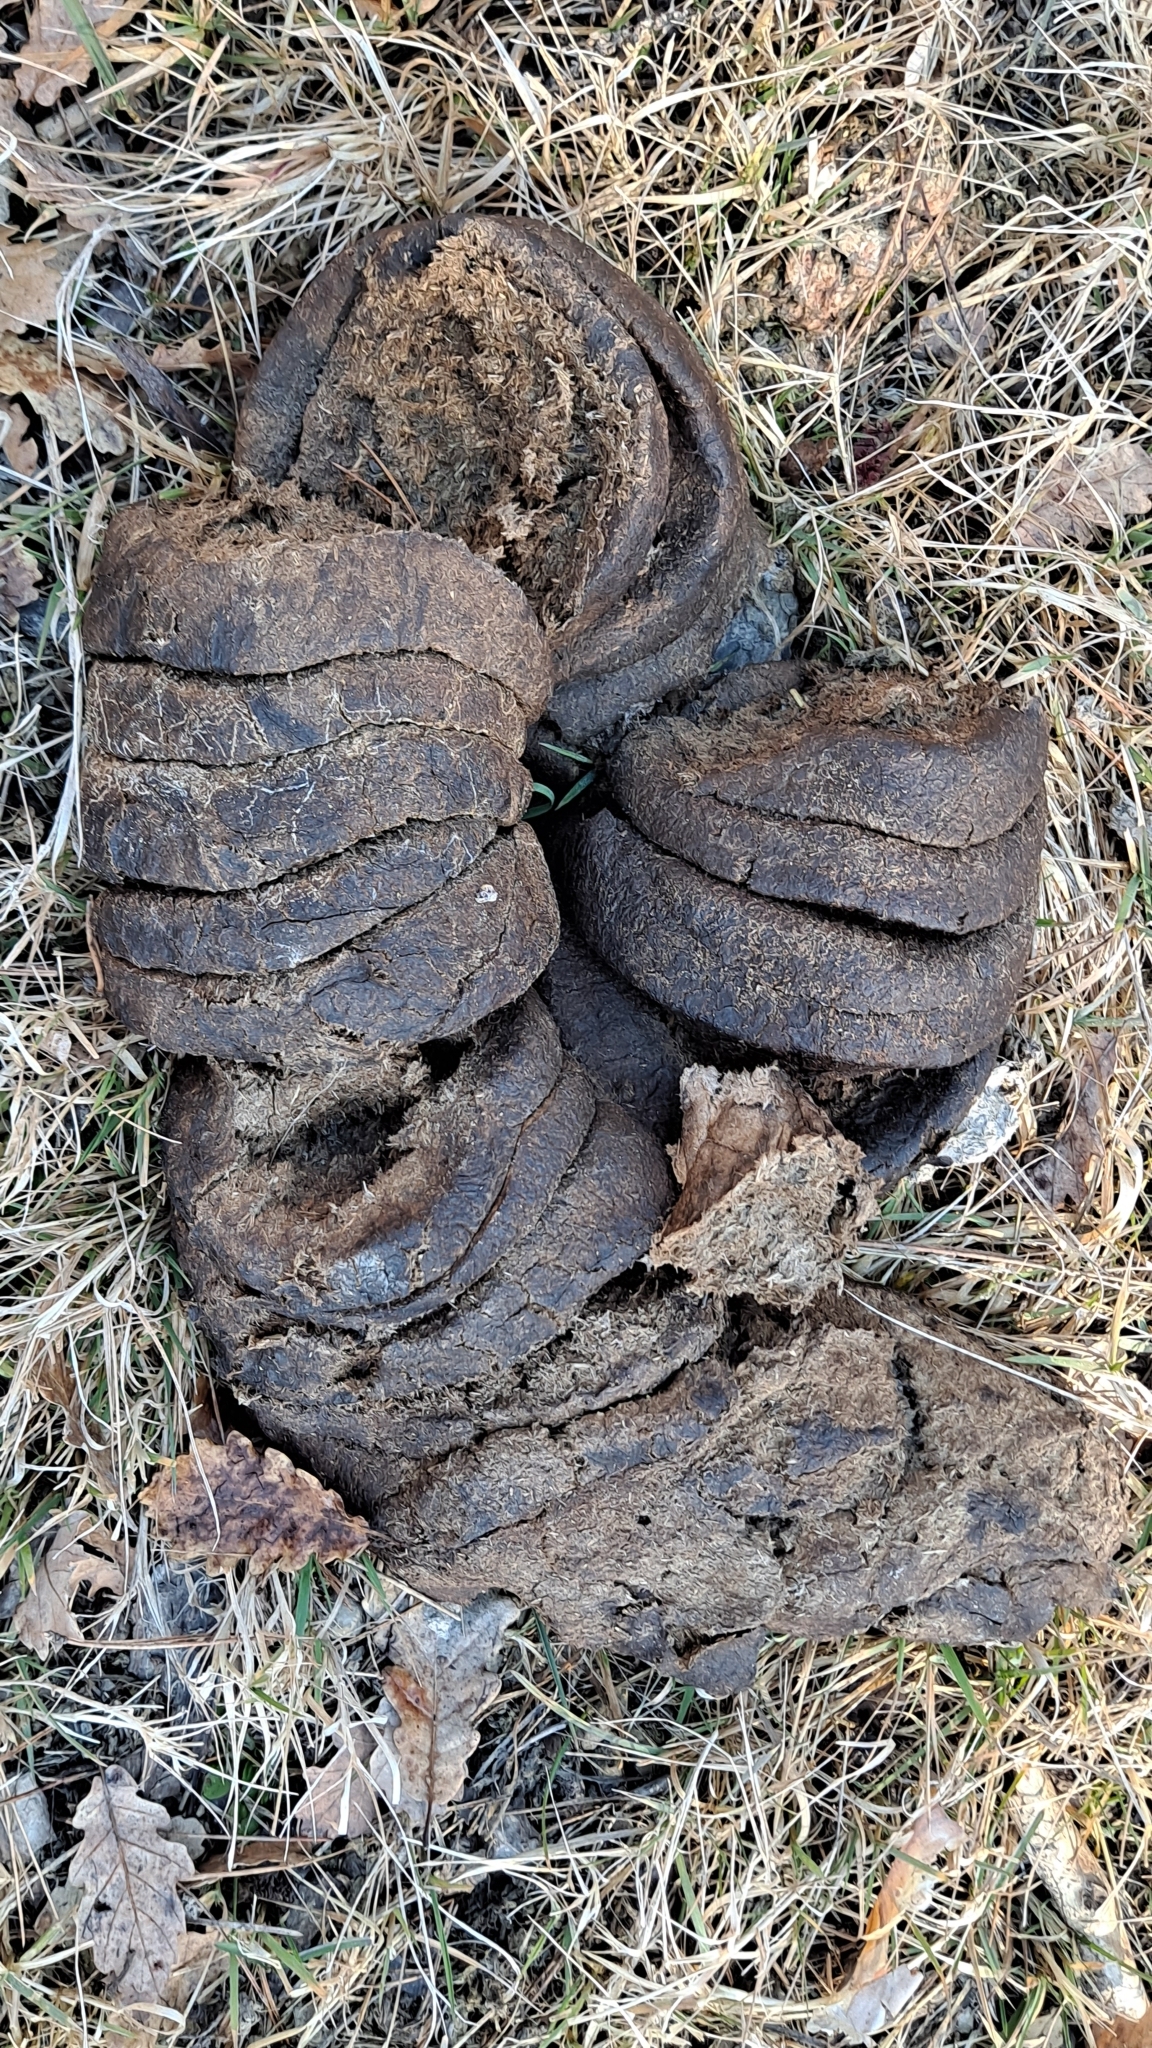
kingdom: Animalia
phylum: Chordata
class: Mammalia
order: Artiodactyla
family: Suidae
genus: Sus
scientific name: Sus scrofa
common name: Wild boar
